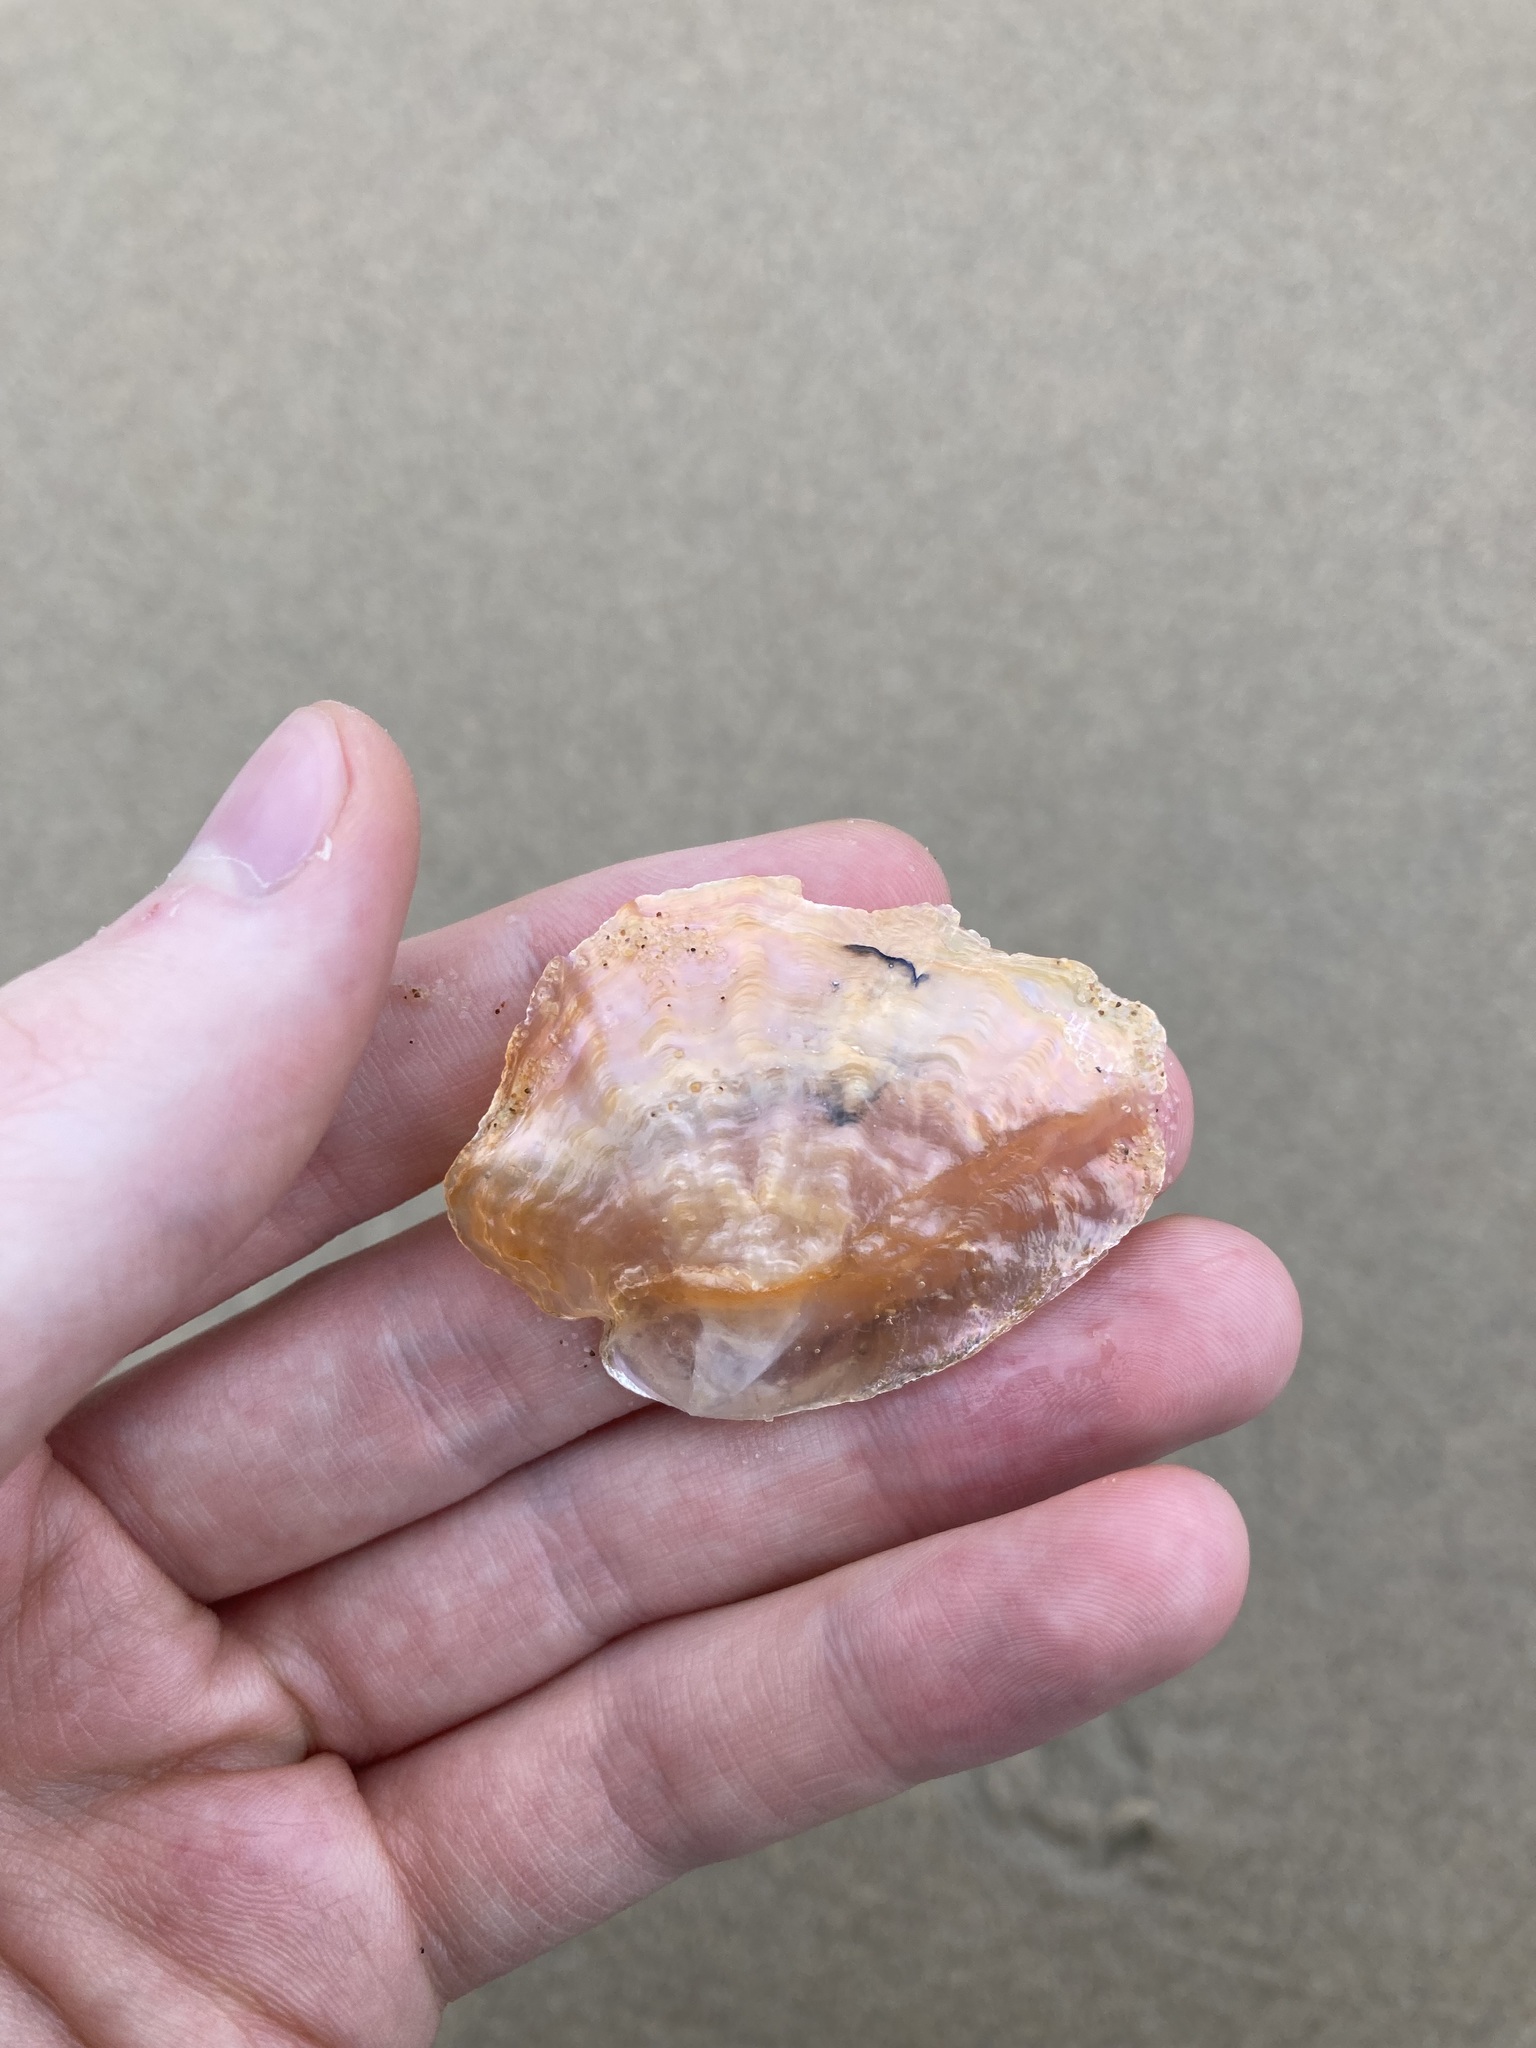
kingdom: Animalia
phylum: Mollusca
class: Bivalvia
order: Pectinida
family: Anomiidae
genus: Anomia
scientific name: Anomia trigonopsis
